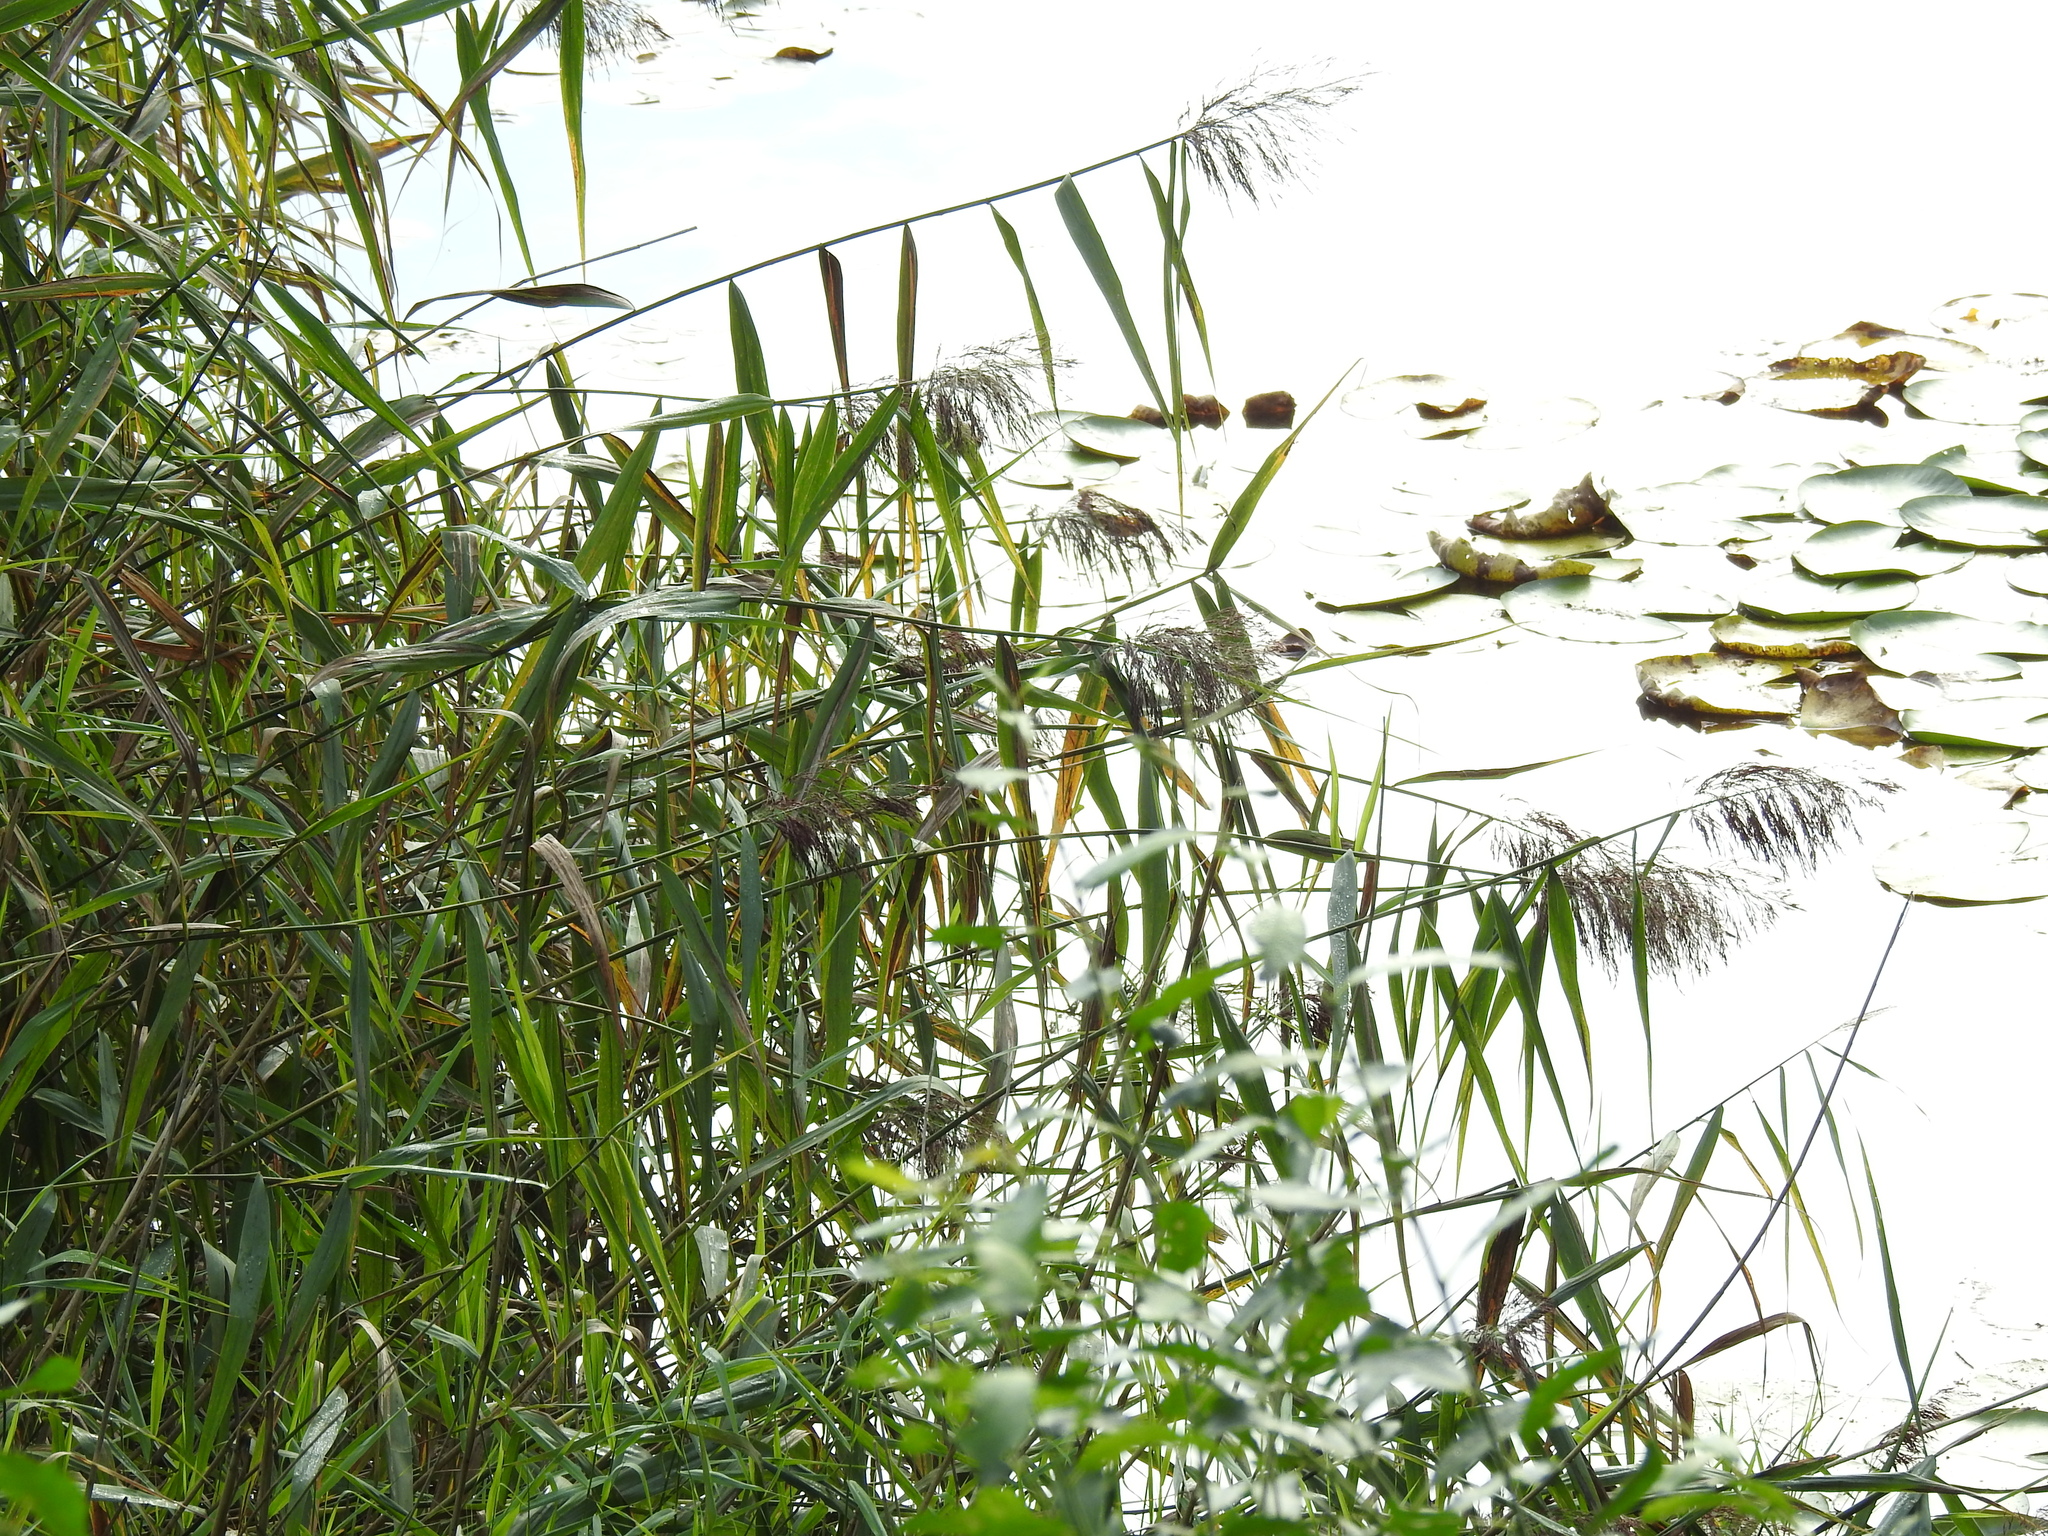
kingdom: Plantae
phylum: Tracheophyta
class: Liliopsida
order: Poales
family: Poaceae
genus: Phragmites
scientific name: Phragmites australis
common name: Common reed
